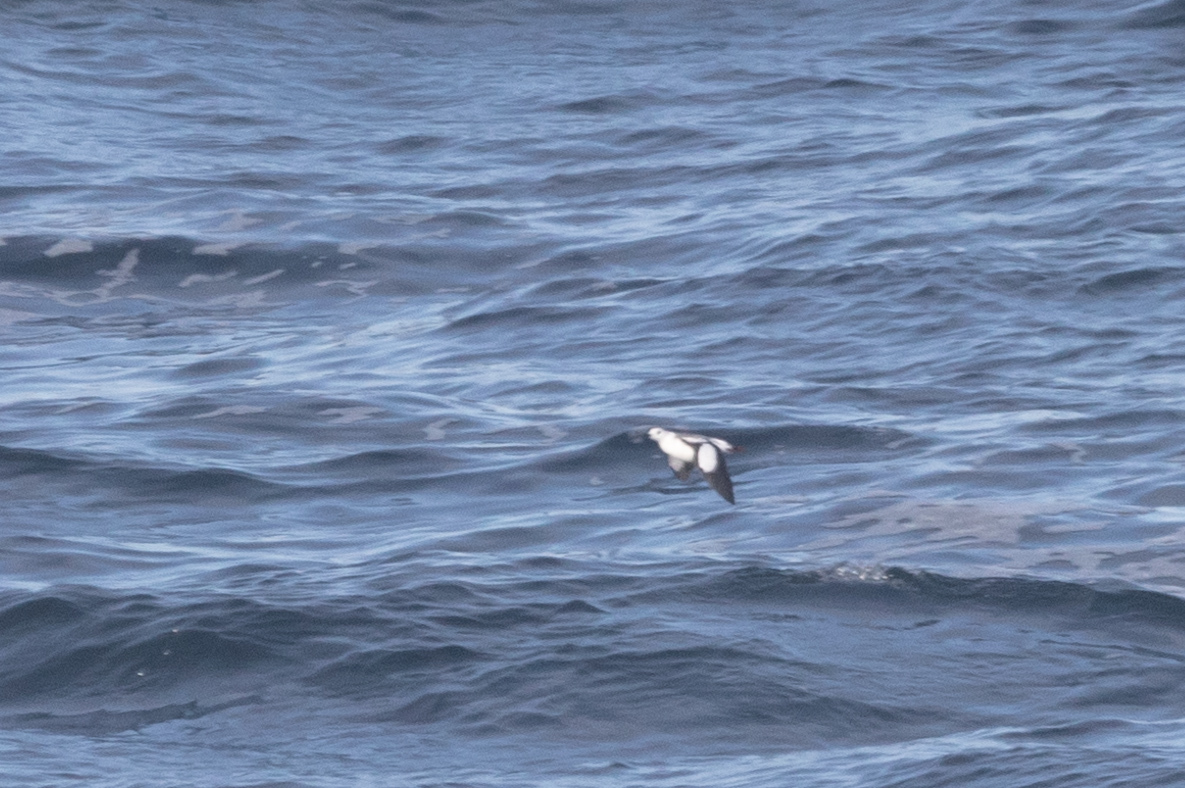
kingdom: Animalia
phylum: Chordata
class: Aves
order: Charadriiformes
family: Alcidae
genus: Cepphus
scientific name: Cepphus grylle
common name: Black guillemot
